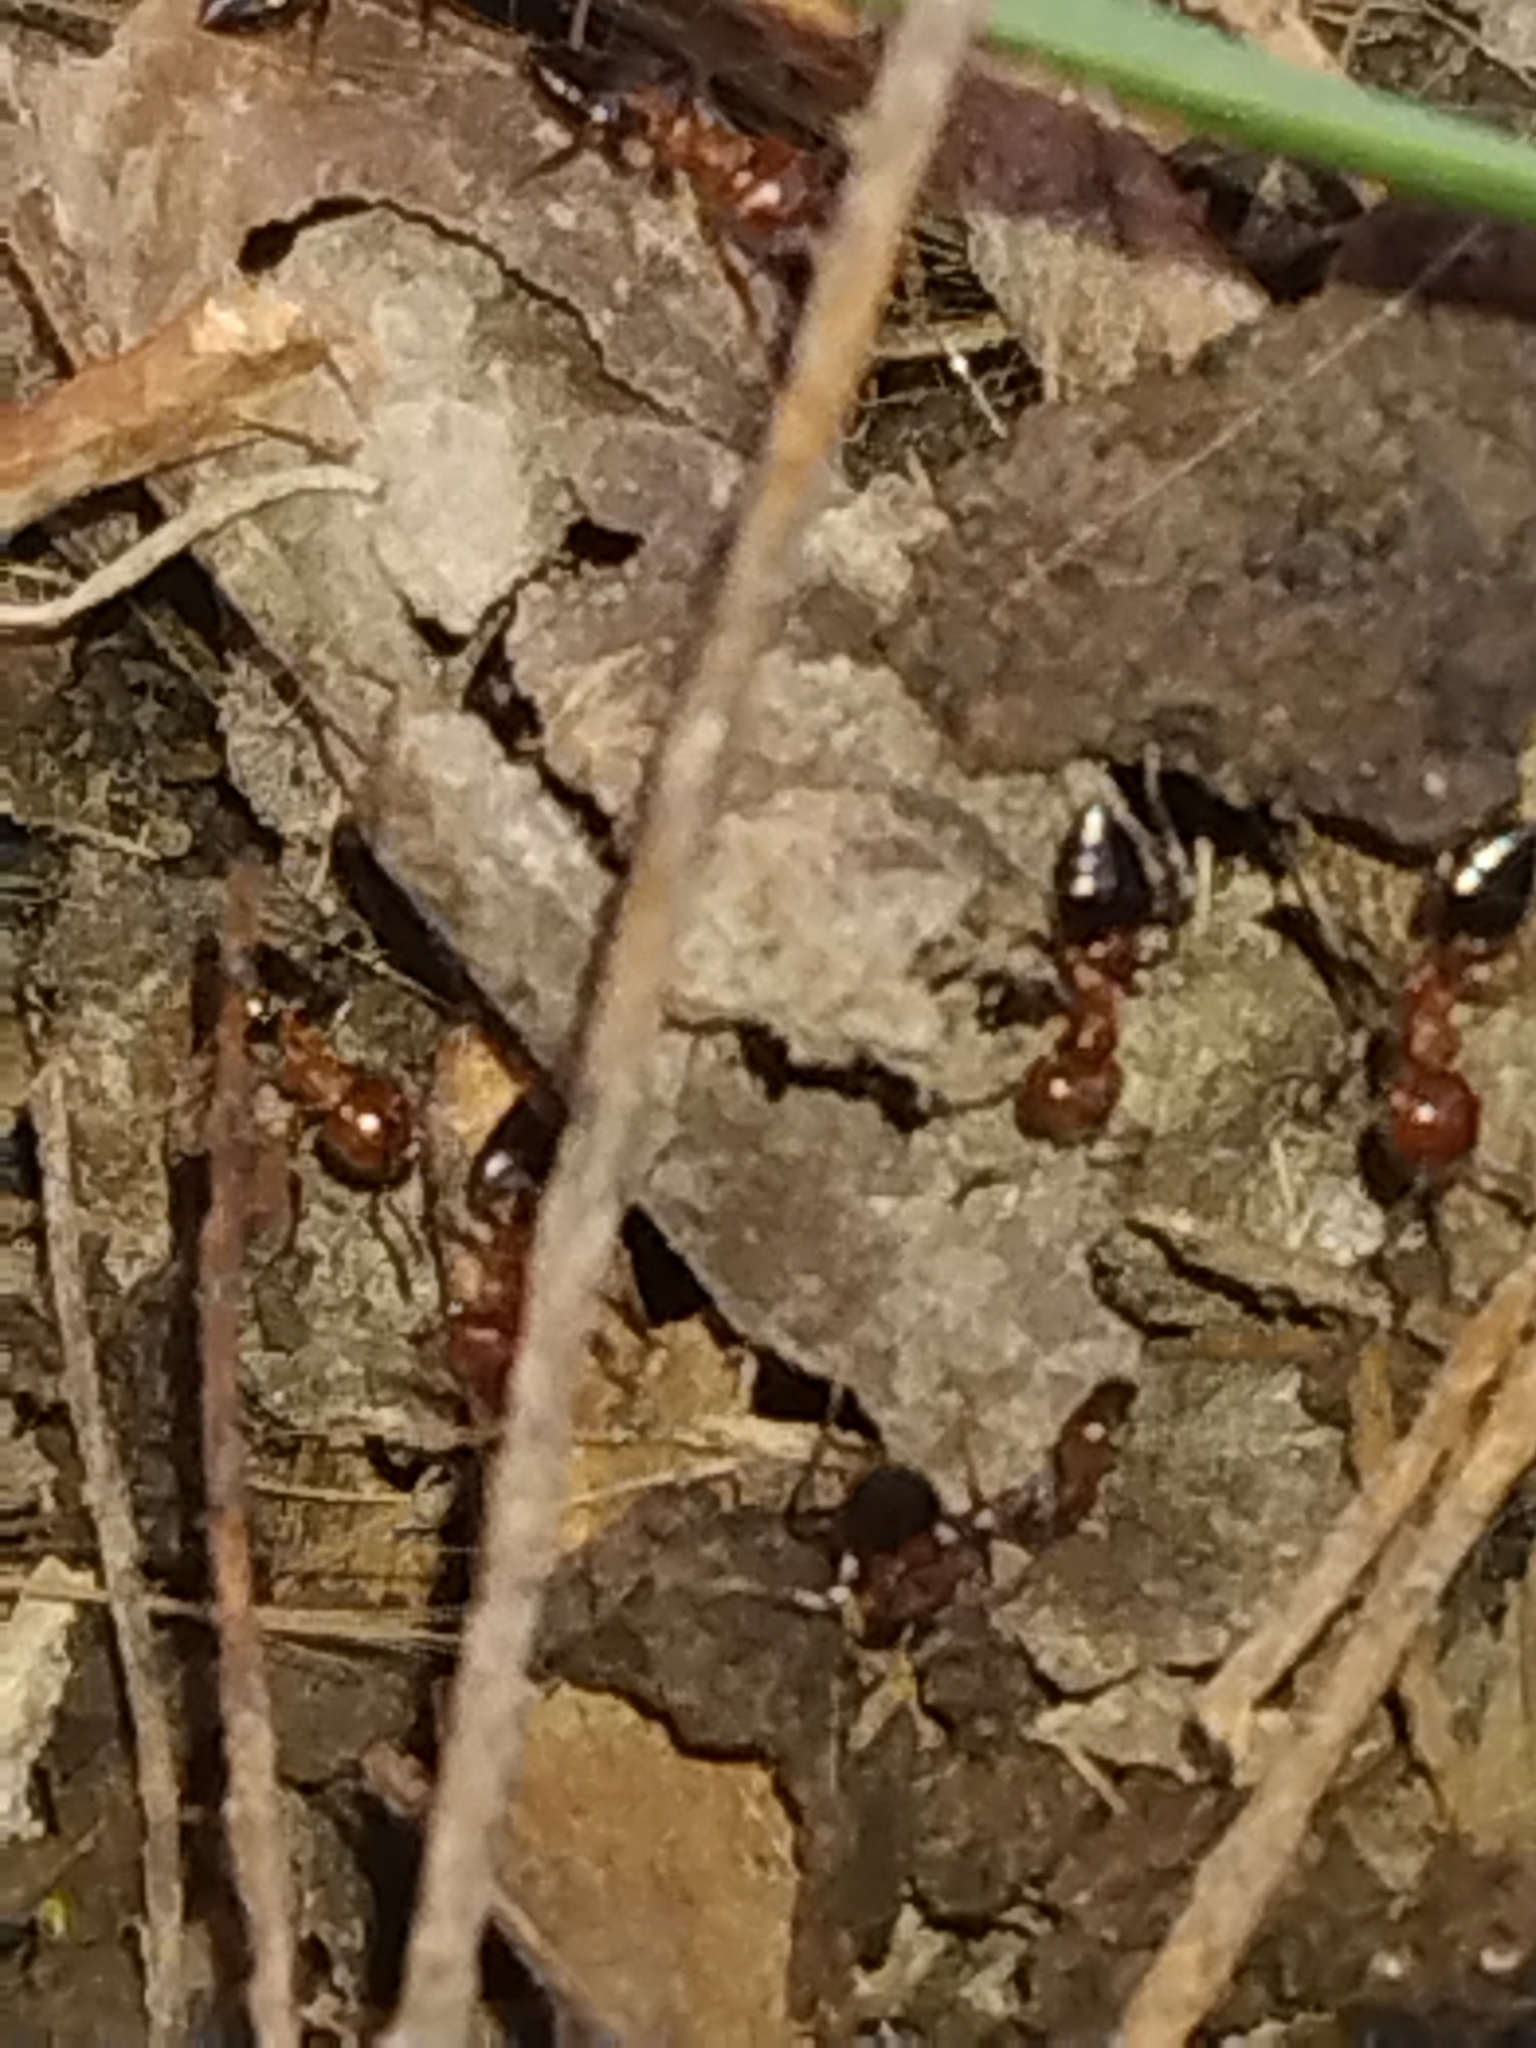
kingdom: Animalia
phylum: Arthropoda
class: Insecta
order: Hymenoptera
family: Formicidae
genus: Crematogaster
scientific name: Crematogaster laeviuscula
